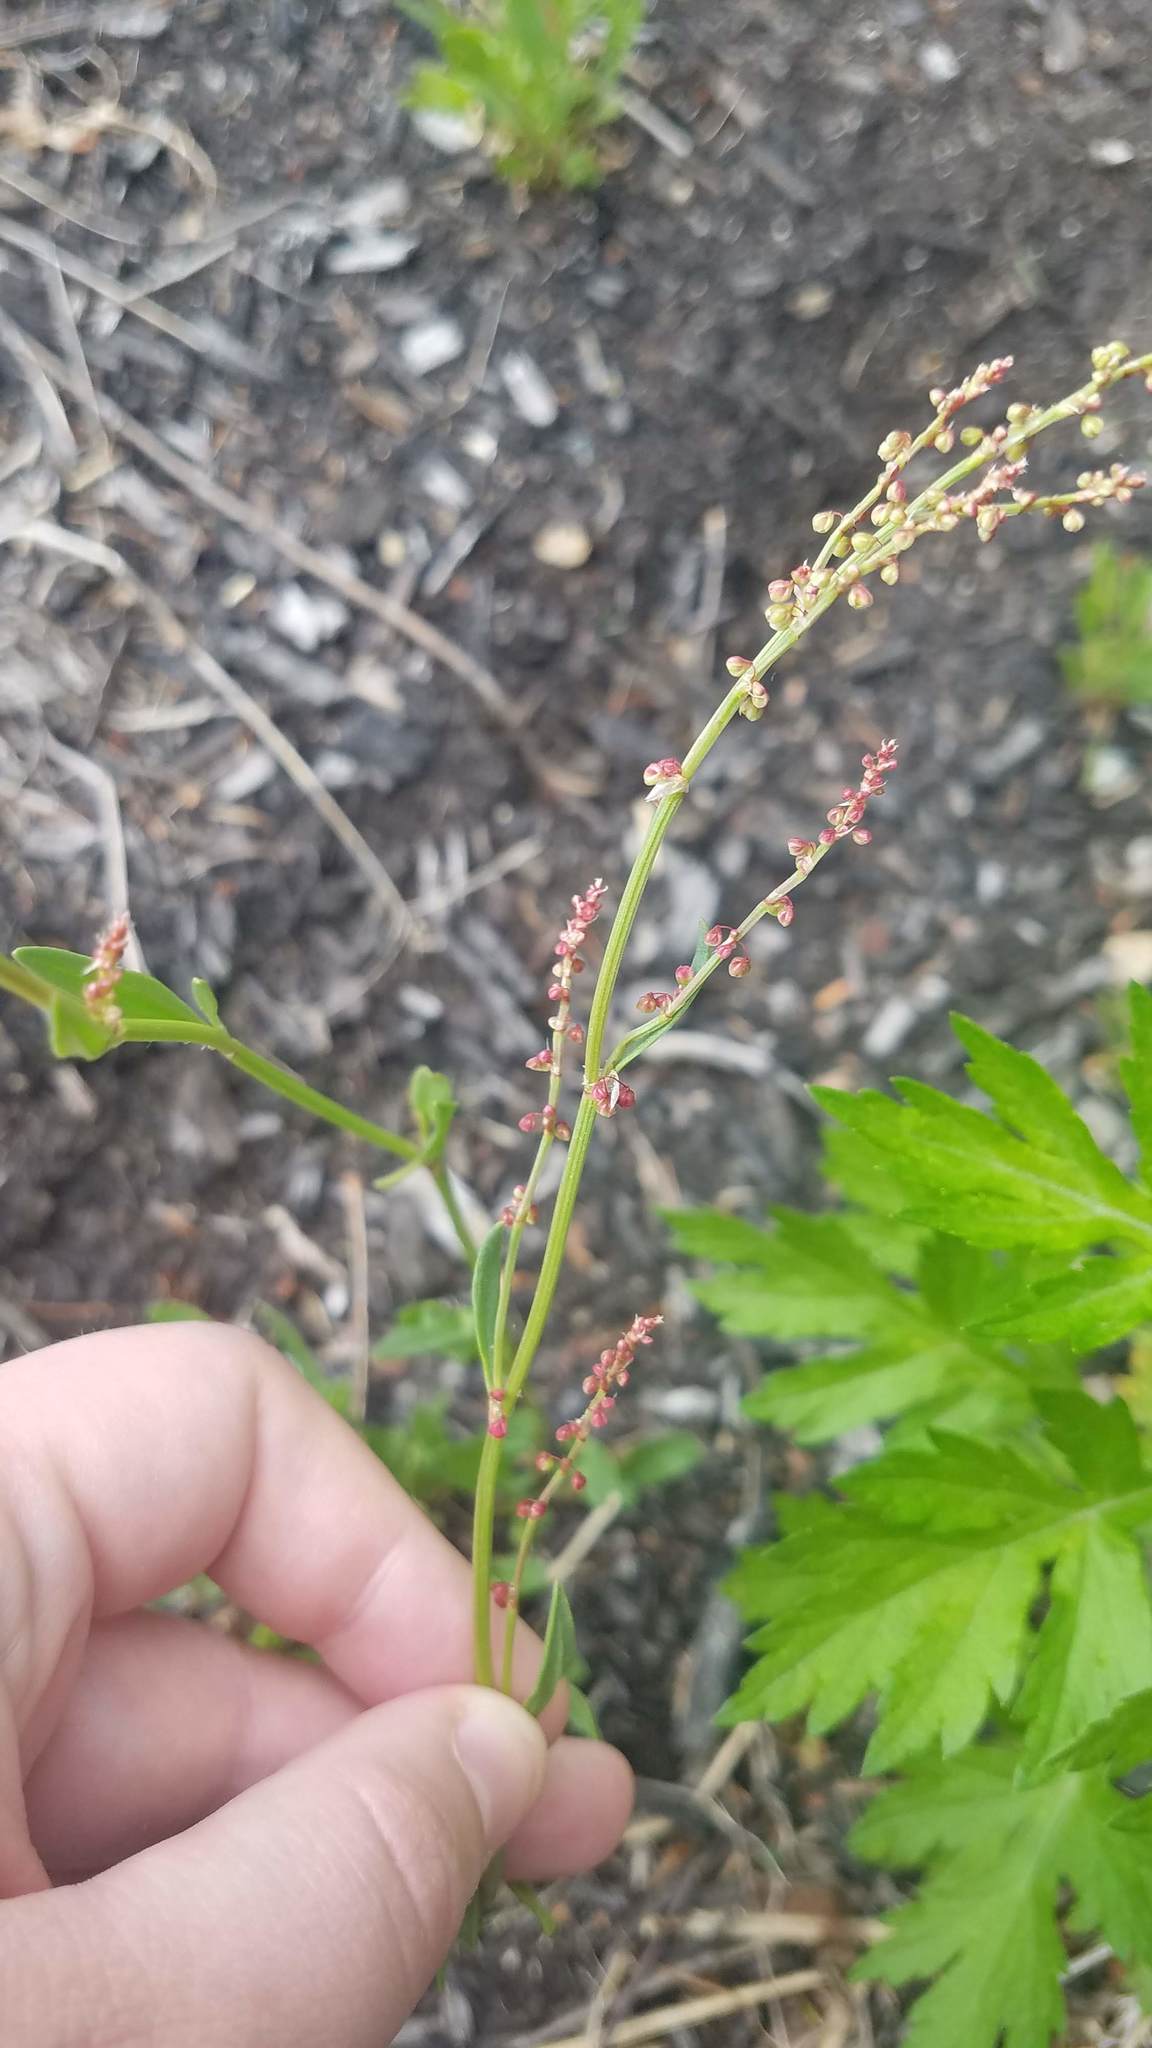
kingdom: Plantae
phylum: Tracheophyta
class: Magnoliopsida
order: Caryophyllales
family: Polygonaceae
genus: Rumex
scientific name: Rumex acetosella
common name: Common sheep sorrel
